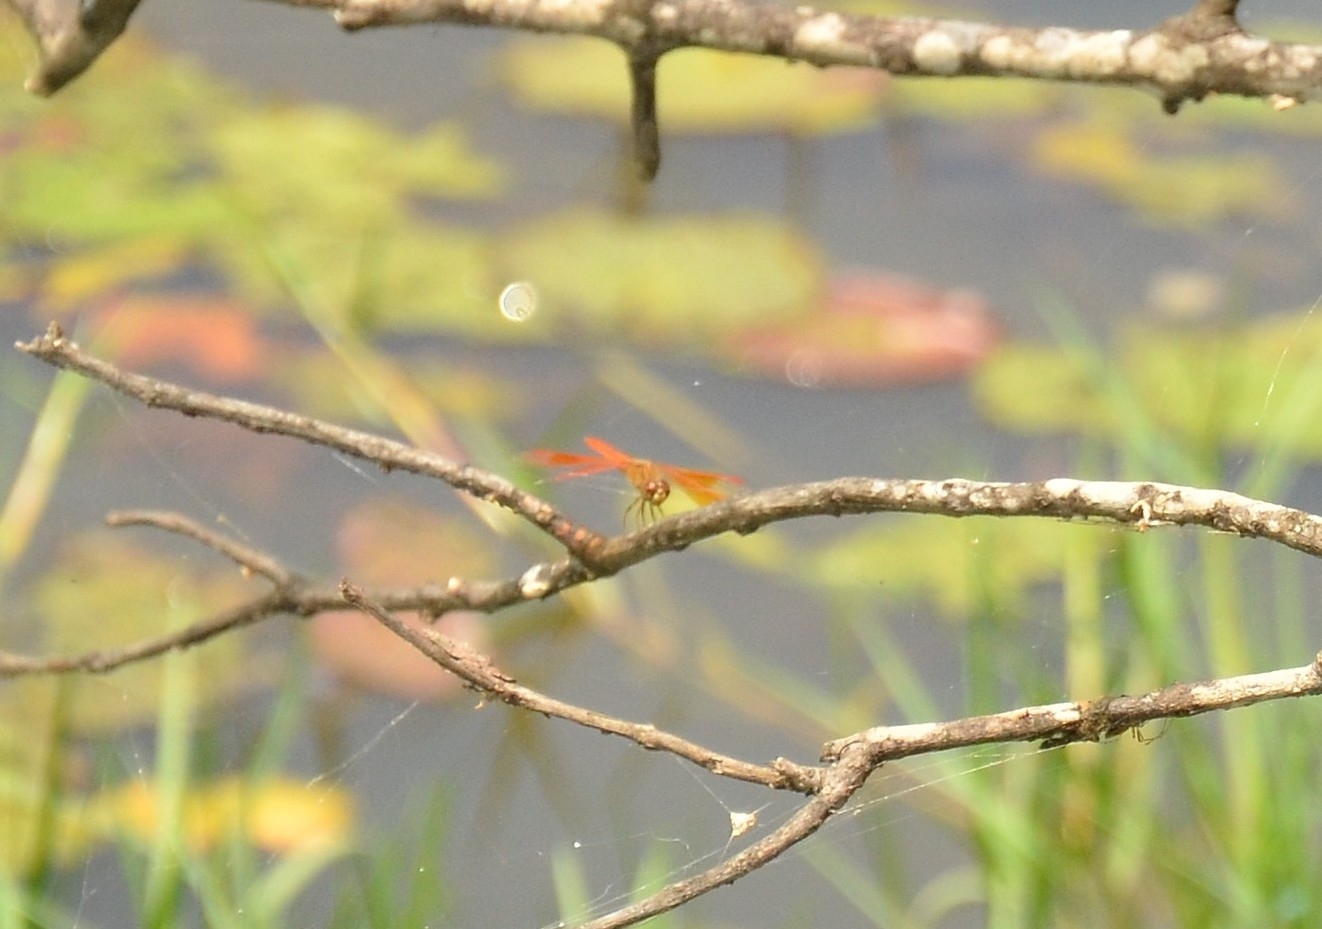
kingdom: Animalia
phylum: Arthropoda
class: Insecta
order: Odonata
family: Libellulidae
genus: Brachythemis
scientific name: Brachythemis contaminata
